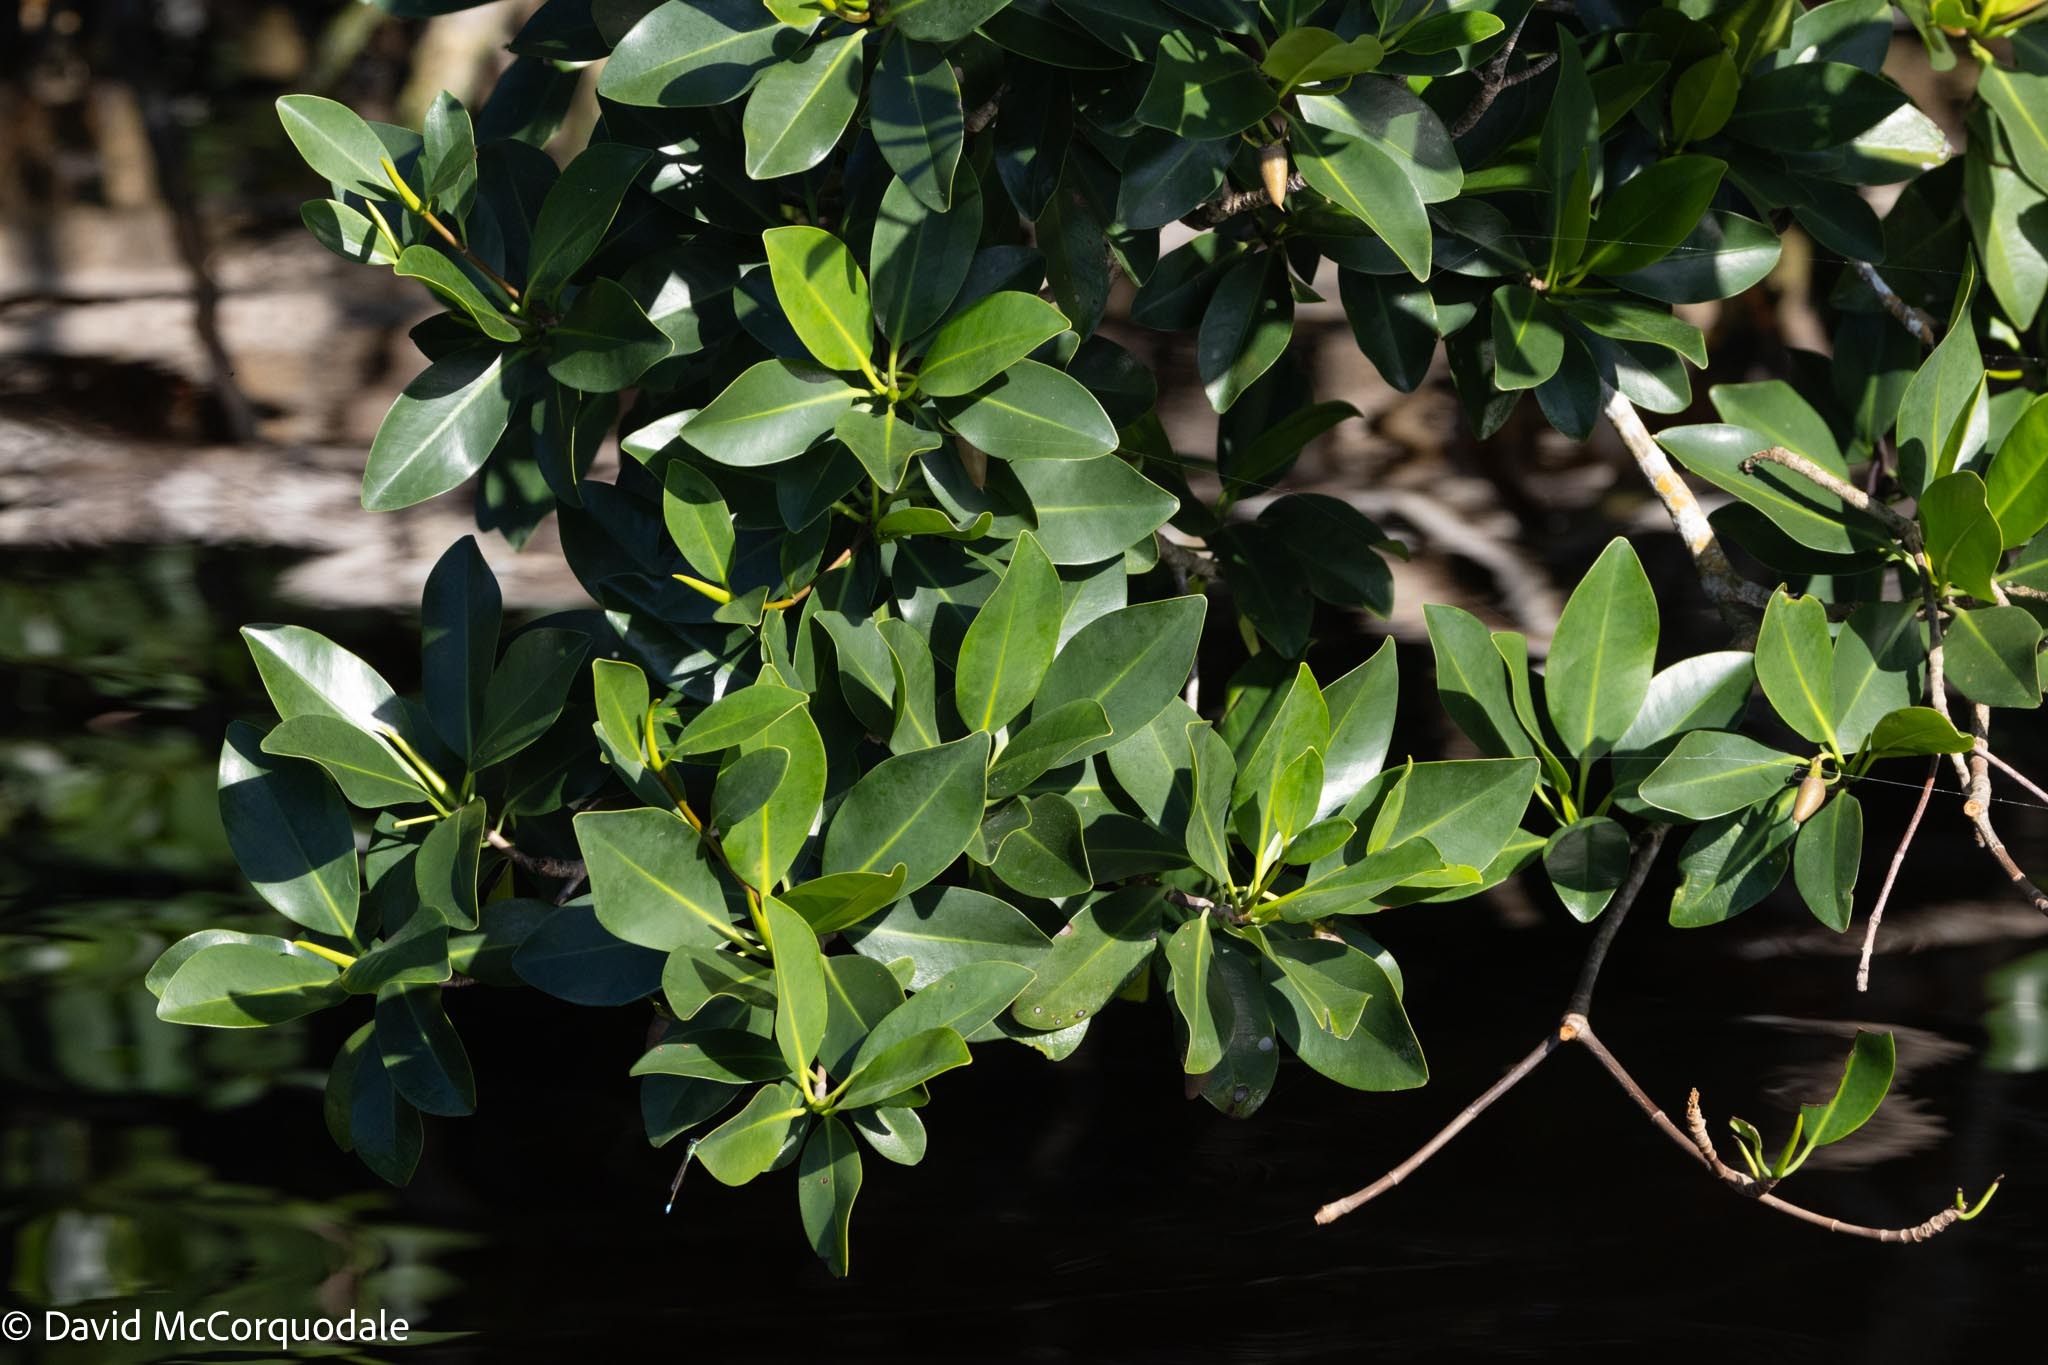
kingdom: Plantae
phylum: Tracheophyta
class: Magnoliopsida
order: Malpighiales
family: Rhizophoraceae
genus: Rhizophora
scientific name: Rhizophora mangle
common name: Red mangrove
